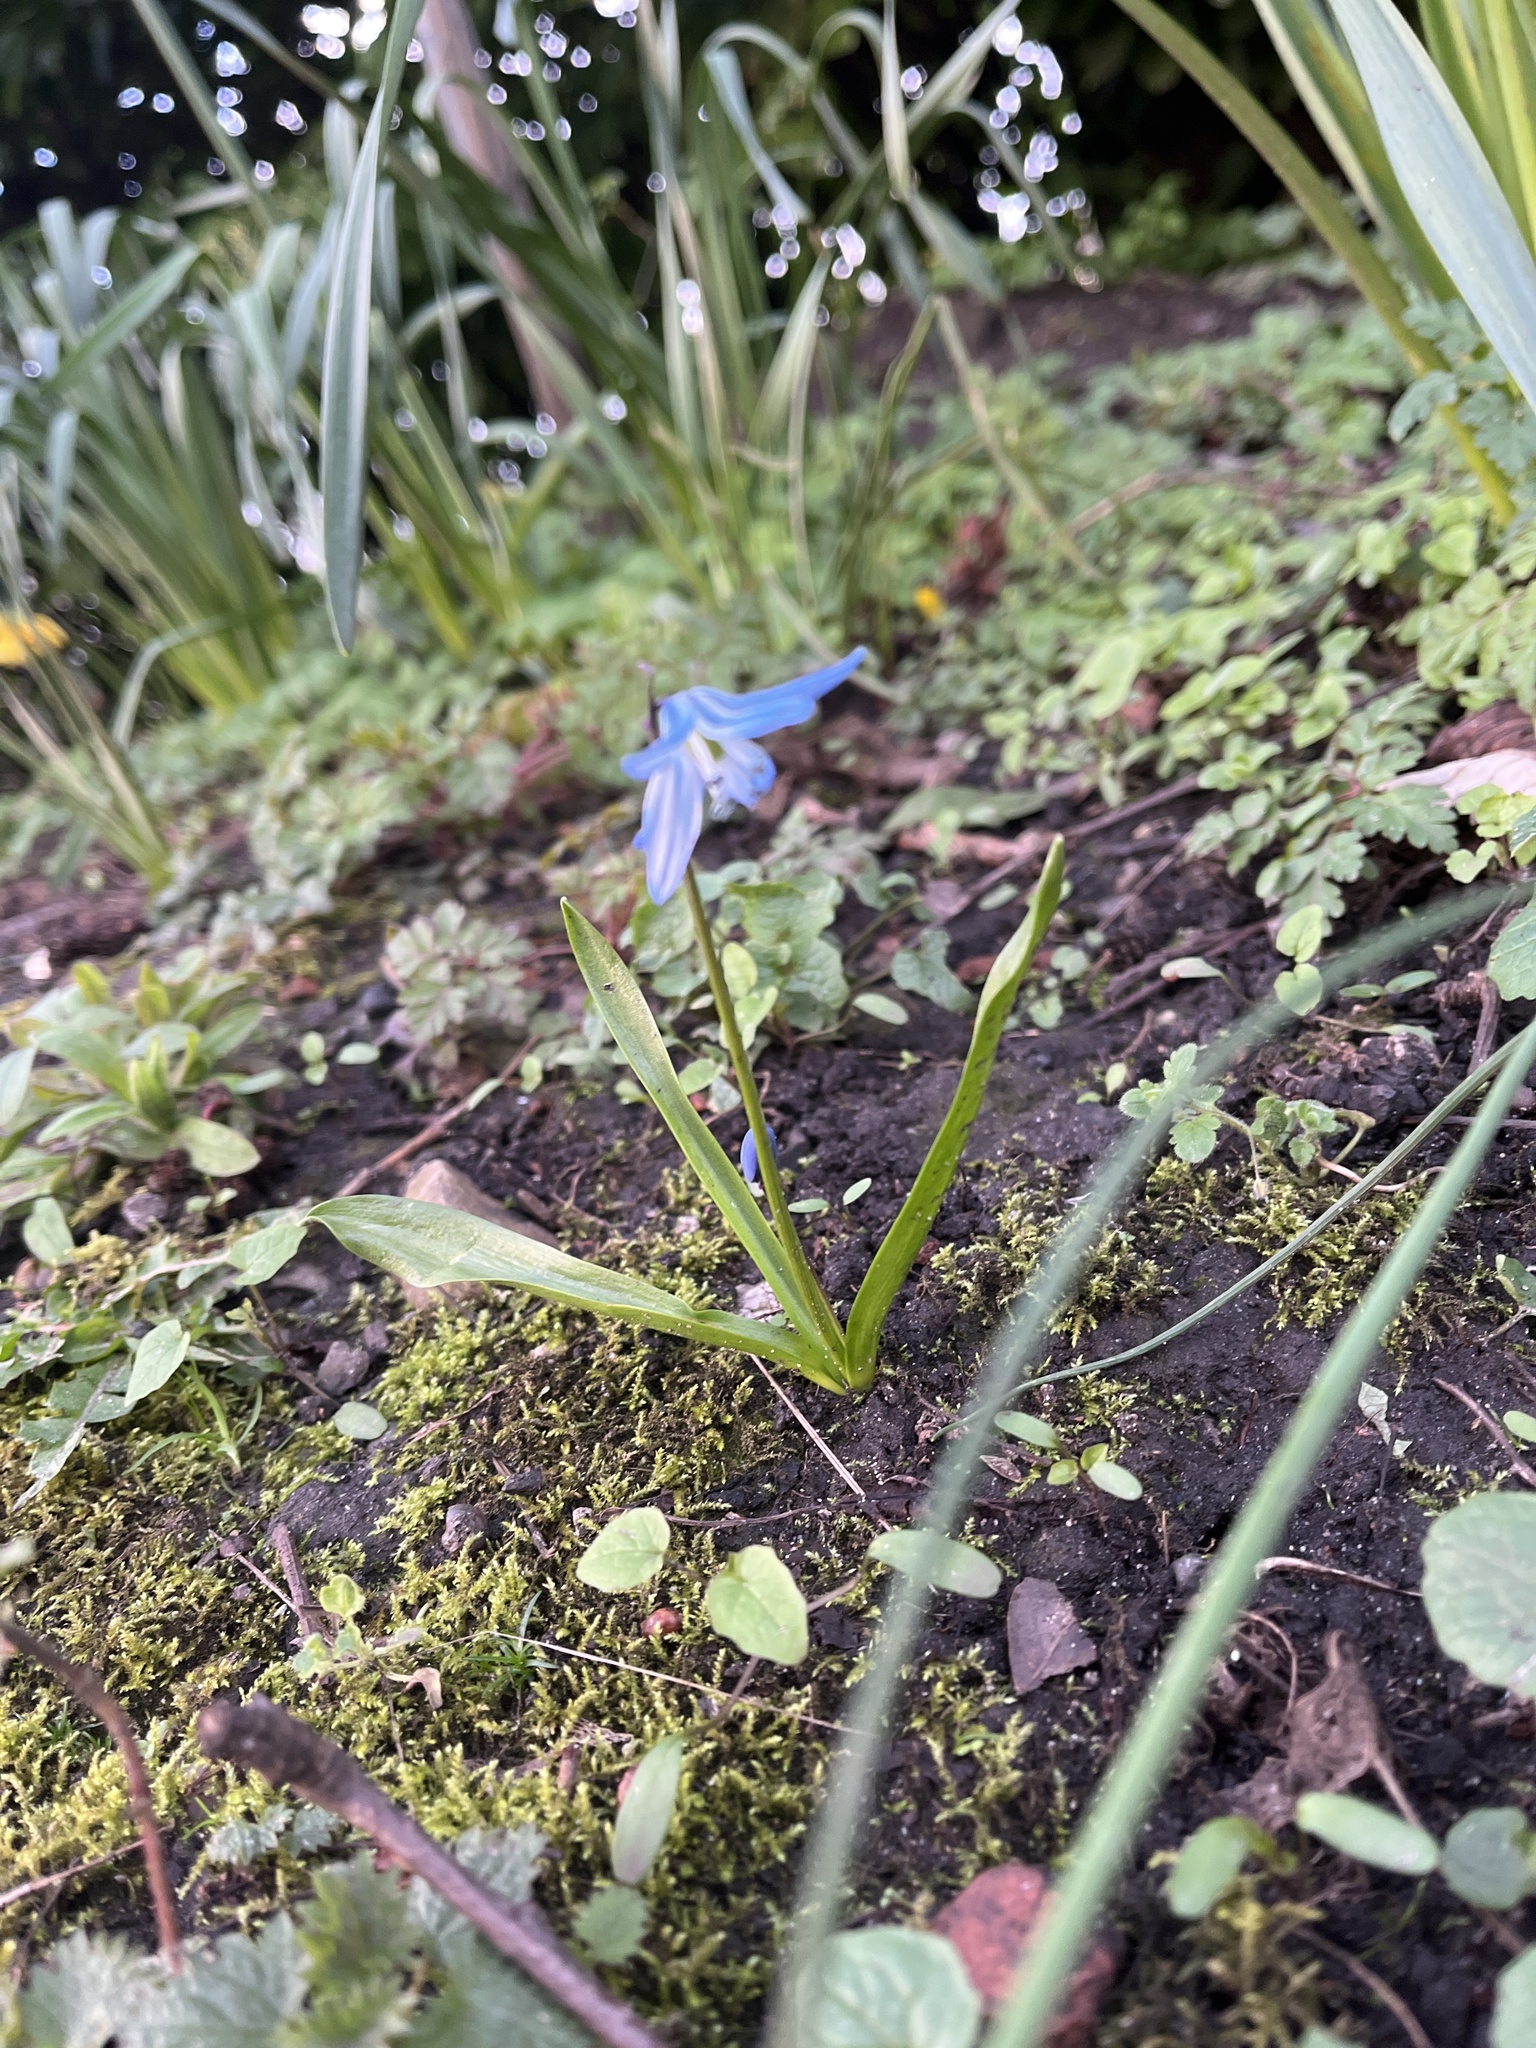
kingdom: Plantae
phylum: Tracheophyta
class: Liliopsida
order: Asparagales
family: Asparagaceae
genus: Scilla
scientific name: Scilla siberica
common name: Siberian squill
